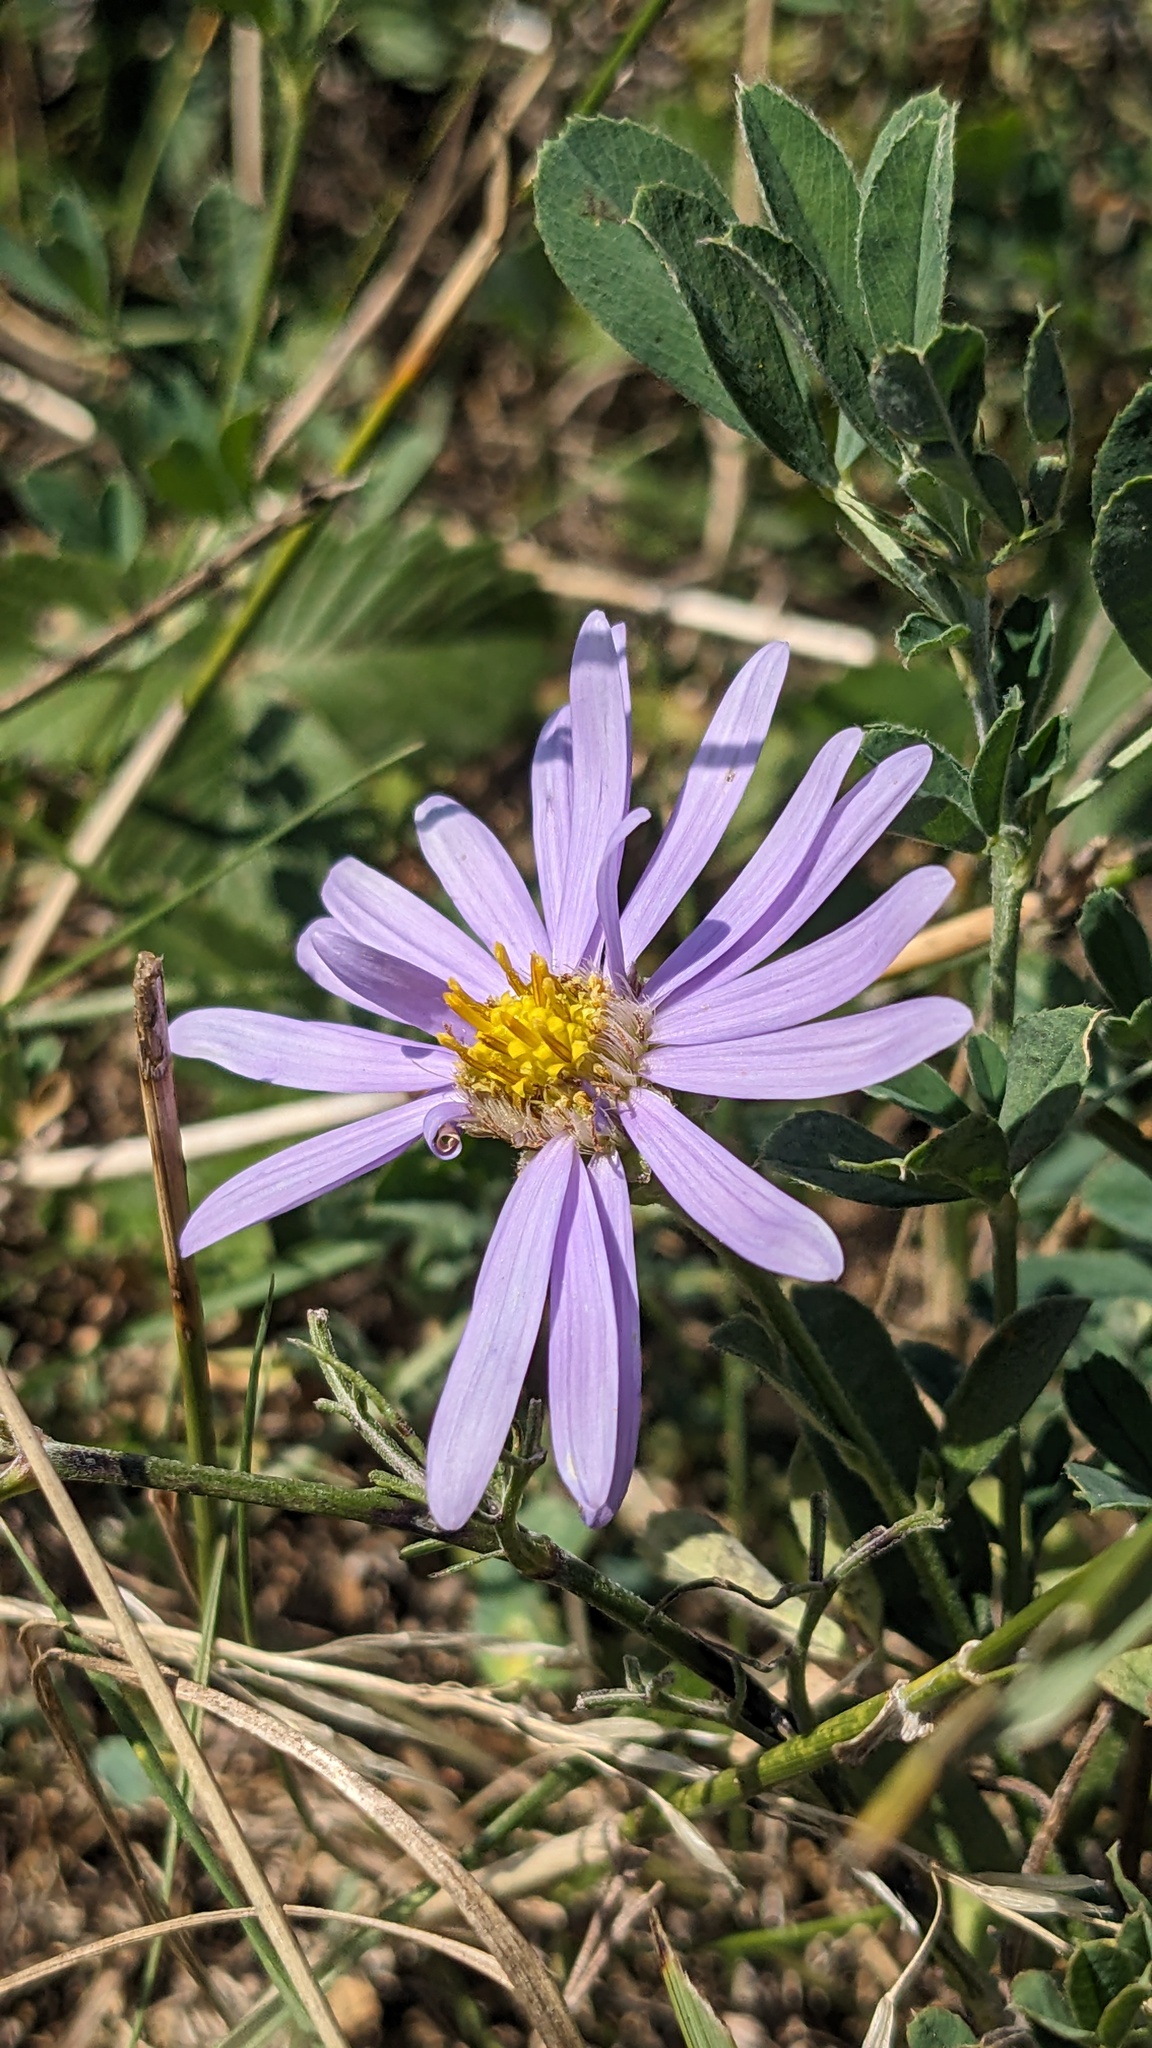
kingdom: Plantae
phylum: Tracheophyta
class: Magnoliopsida
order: Asterales
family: Asteraceae
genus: Aster
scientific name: Aster amellus
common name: European michaelmas daisy
